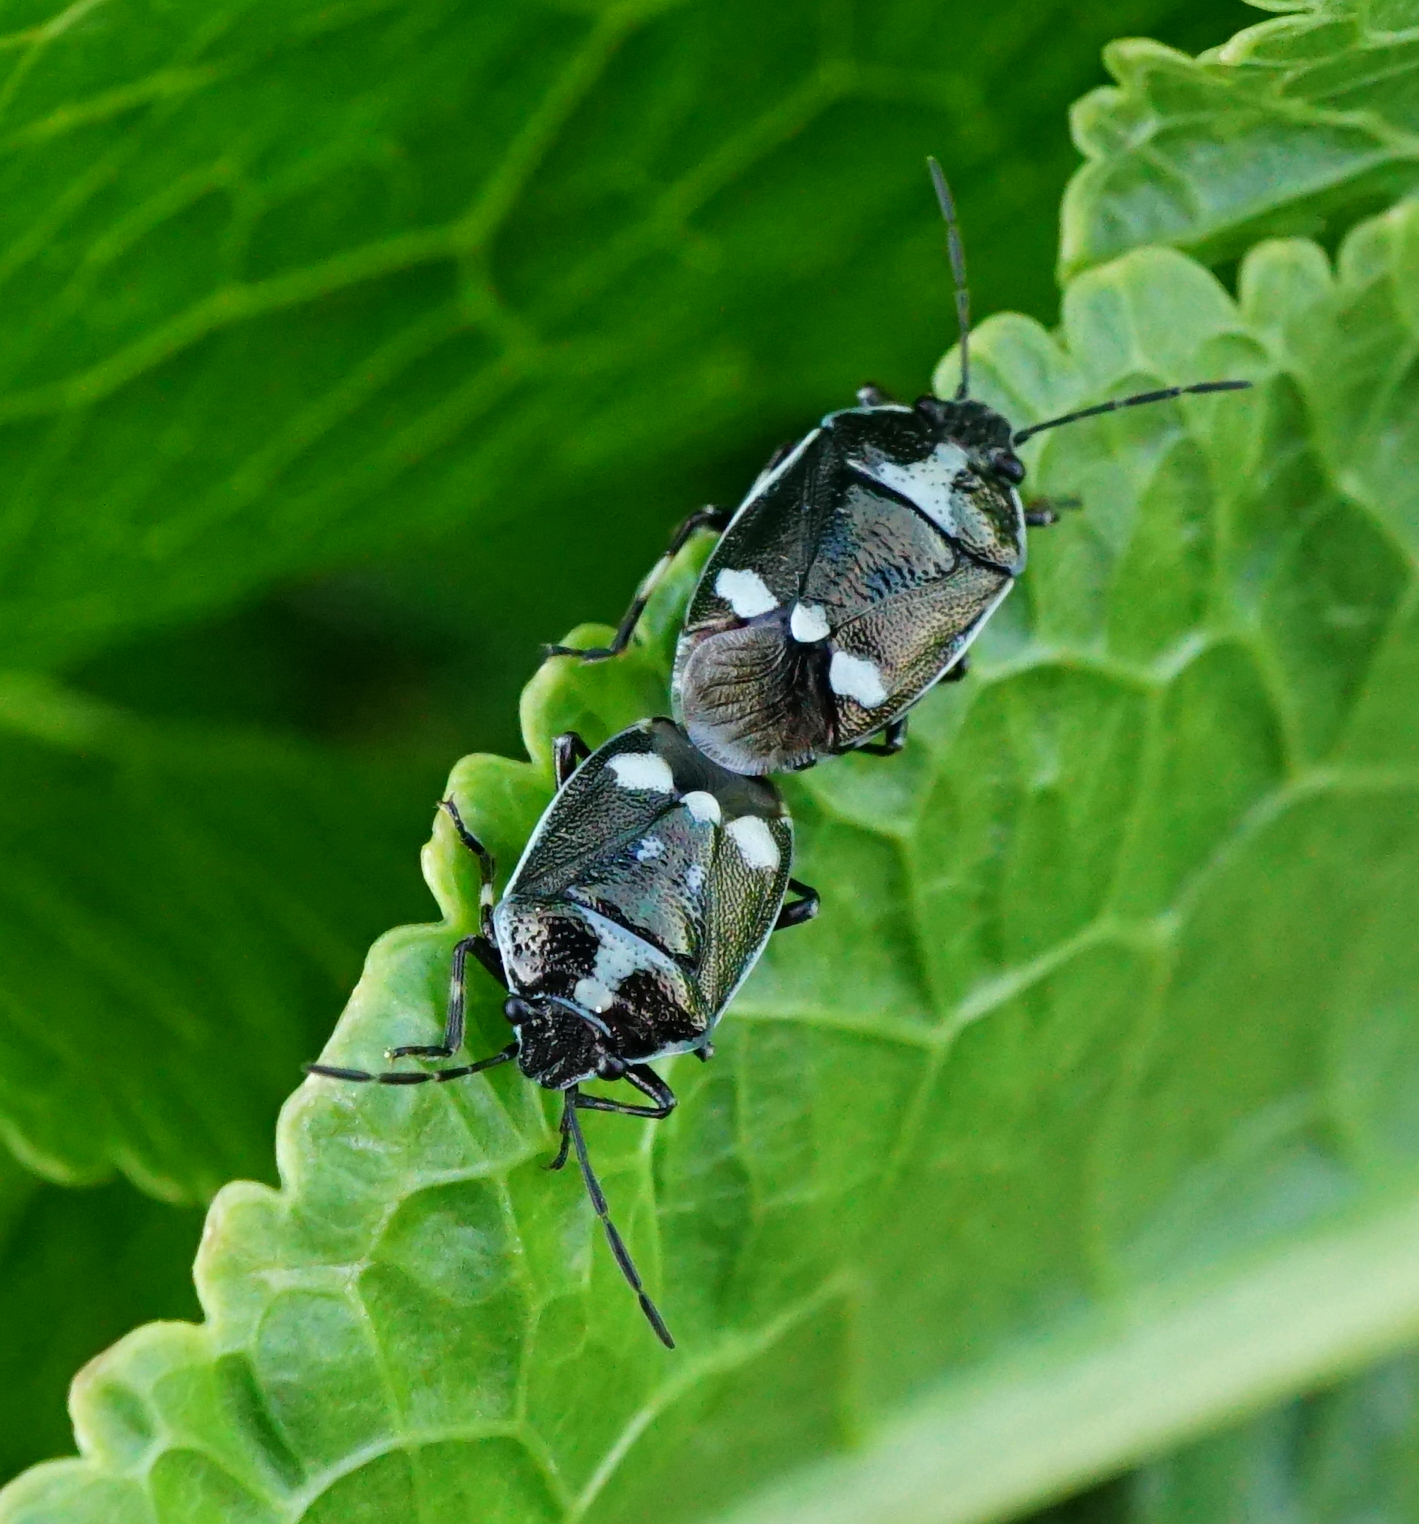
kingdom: Animalia
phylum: Arthropoda
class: Insecta
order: Hemiptera
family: Pentatomidae
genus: Eurydema
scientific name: Eurydema oleracea
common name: Cabbage bug
